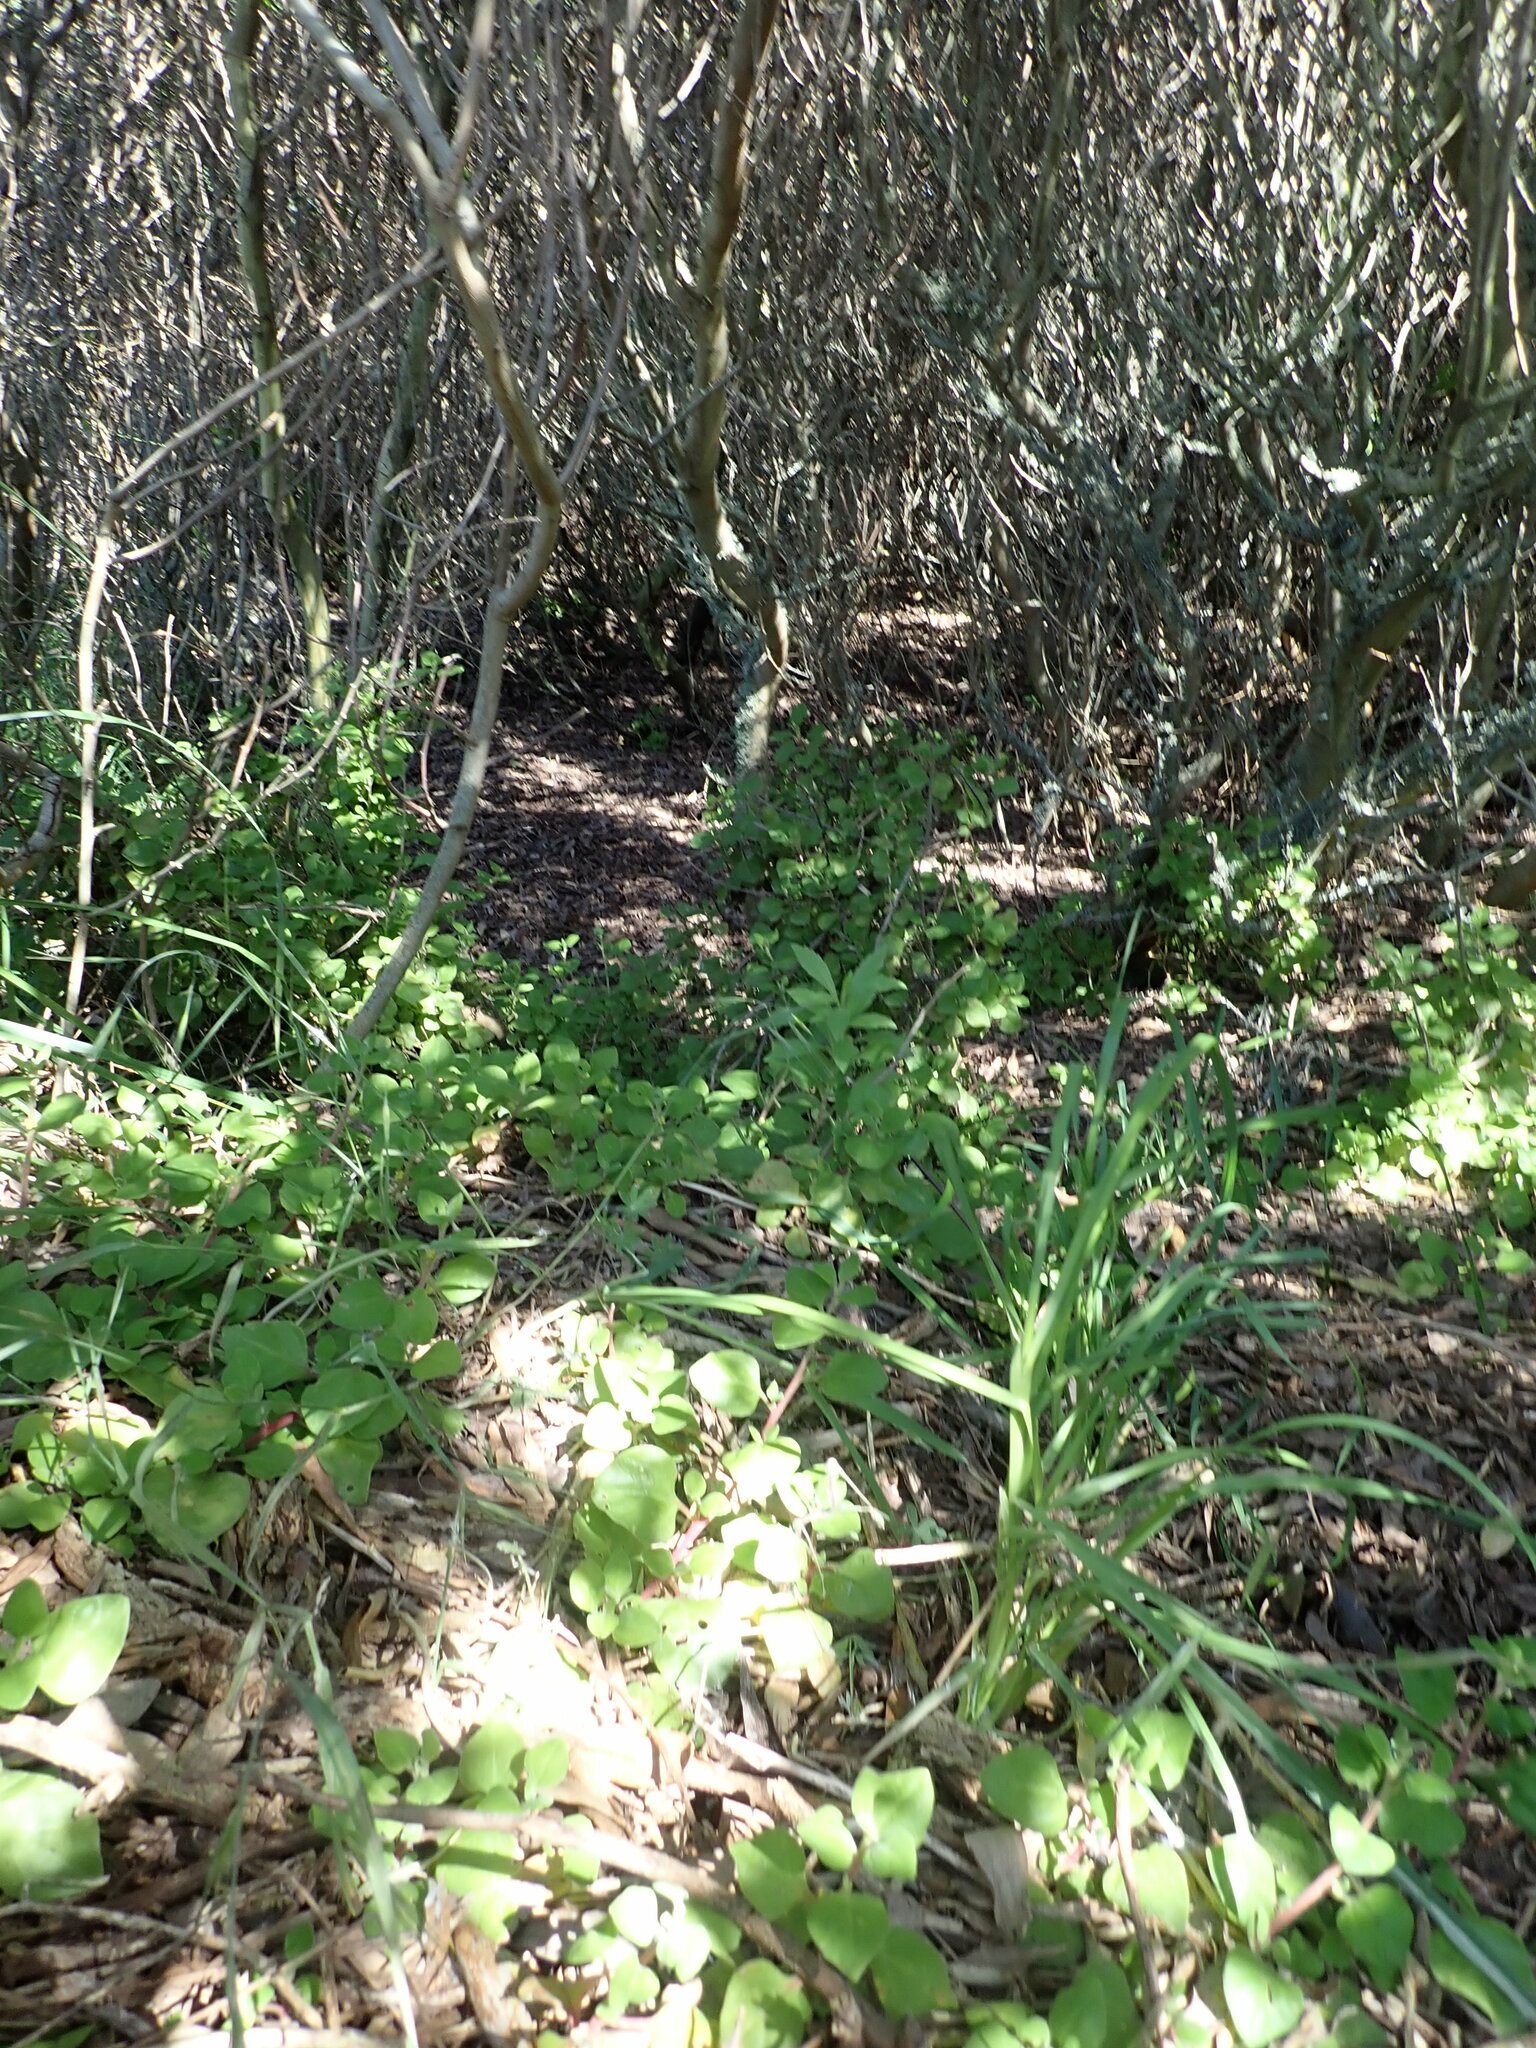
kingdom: Plantae
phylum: Tracheophyta
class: Magnoliopsida
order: Caryophyllales
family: Aizoaceae
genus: Tetragonia
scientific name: Tetragonia implexicoma
